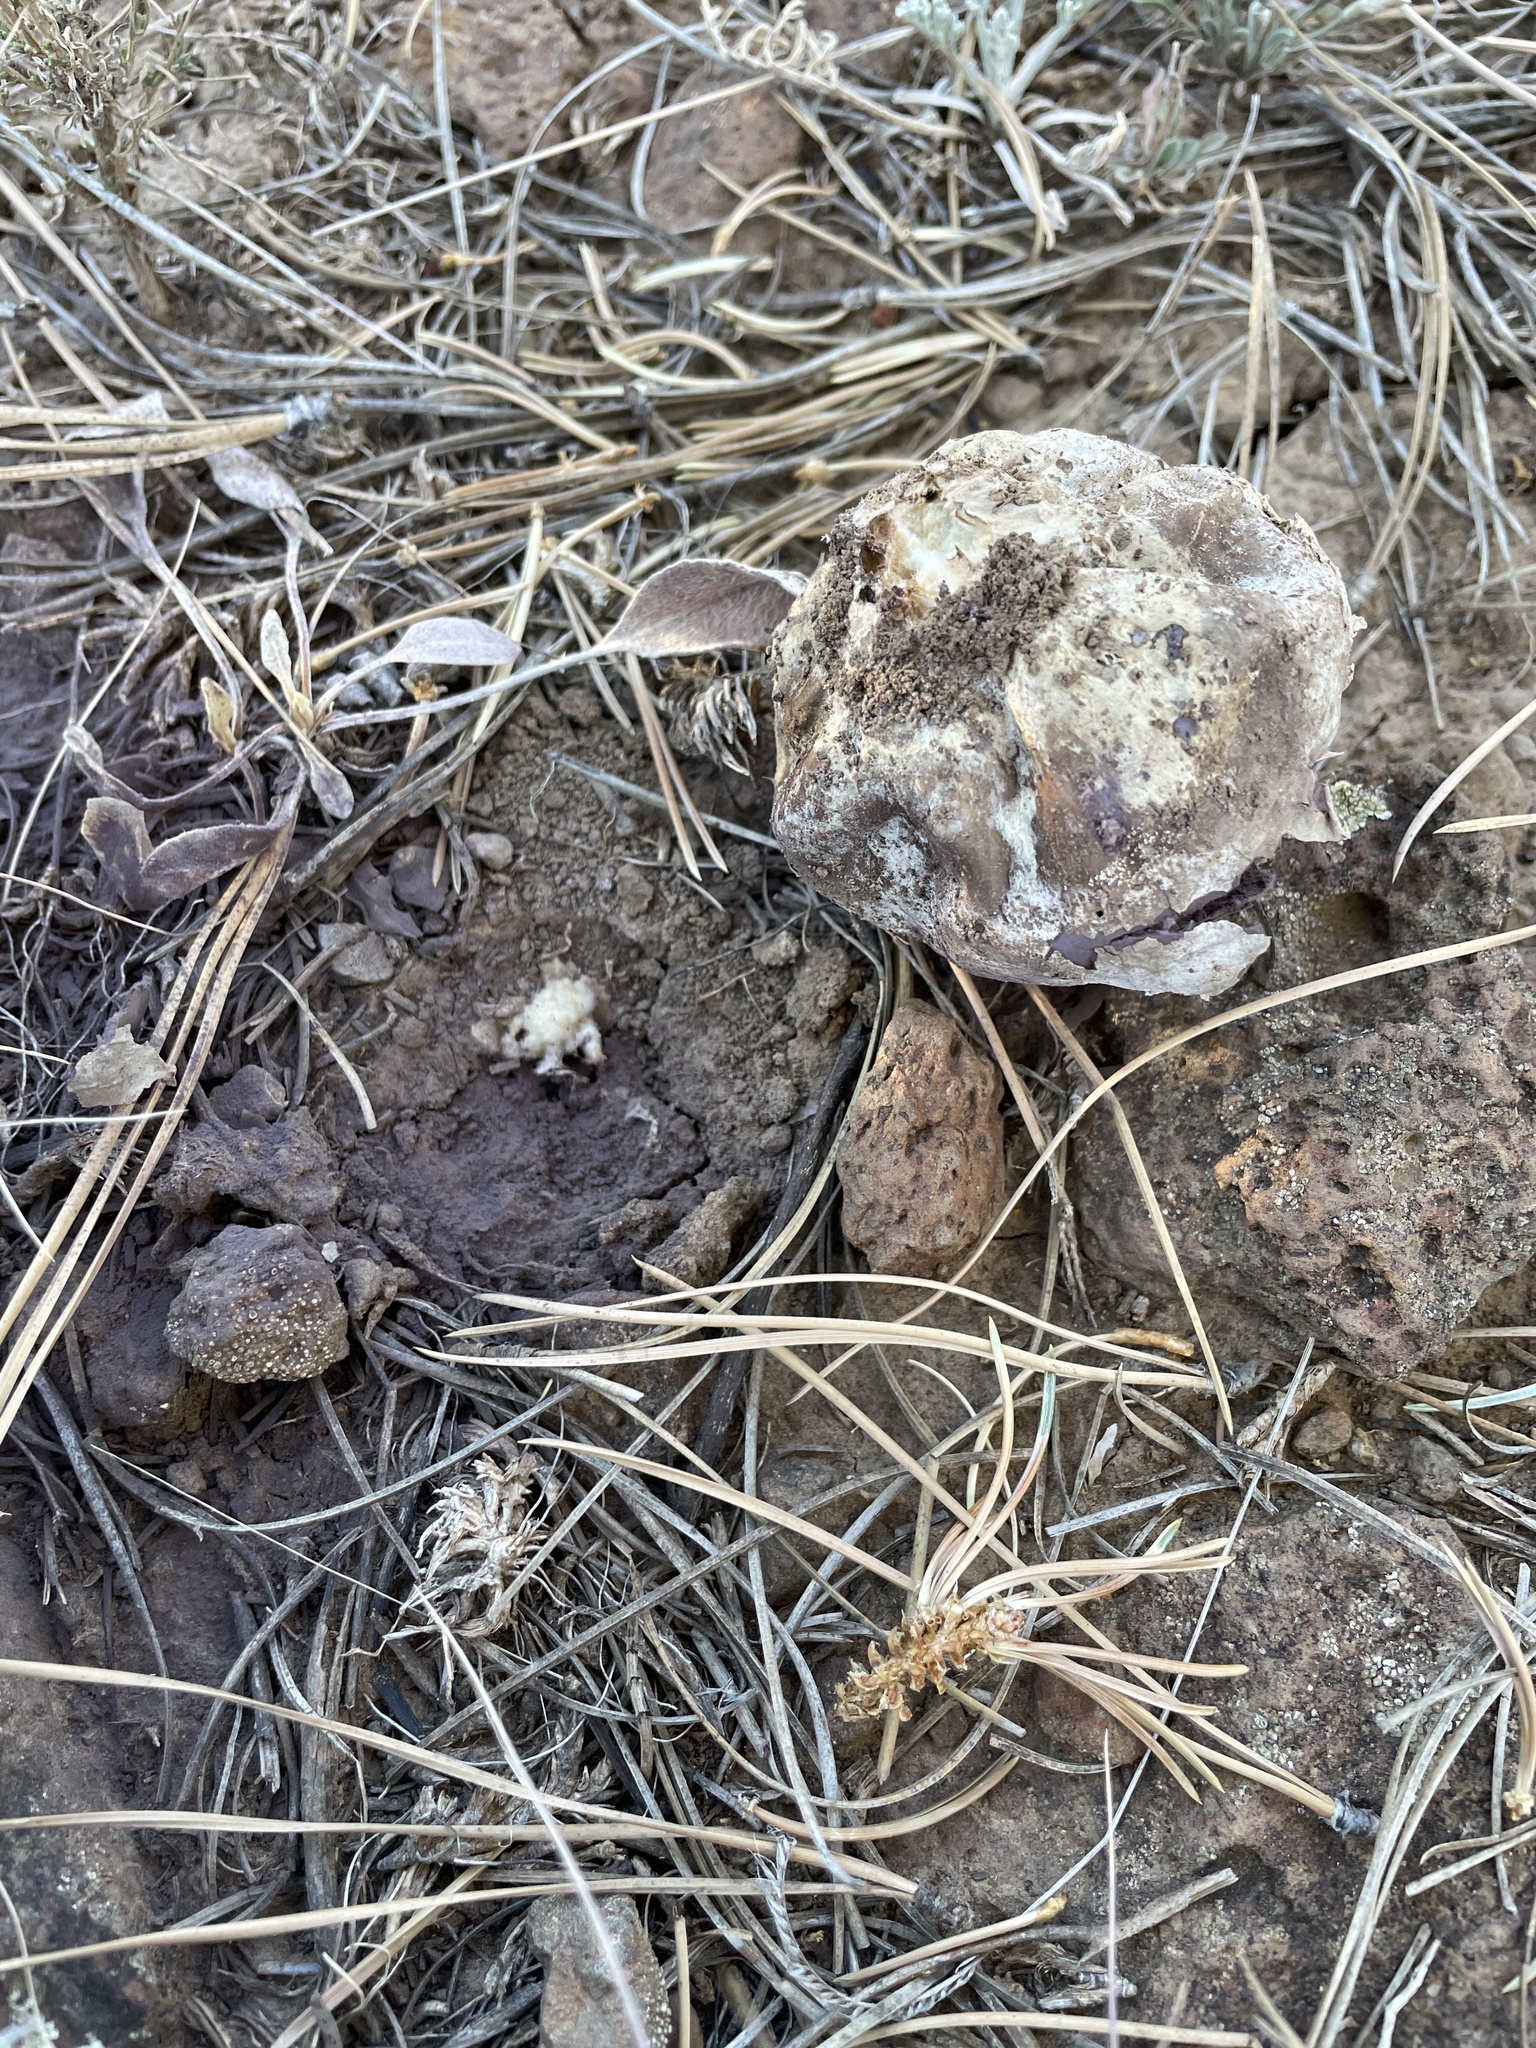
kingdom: Fungi
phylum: Basidiomycota
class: Agaricomycetes
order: Agaricales
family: Lycoperdaceae
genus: Calvatia
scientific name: Calvatia cyathiformis
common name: Purple-spored puffball
